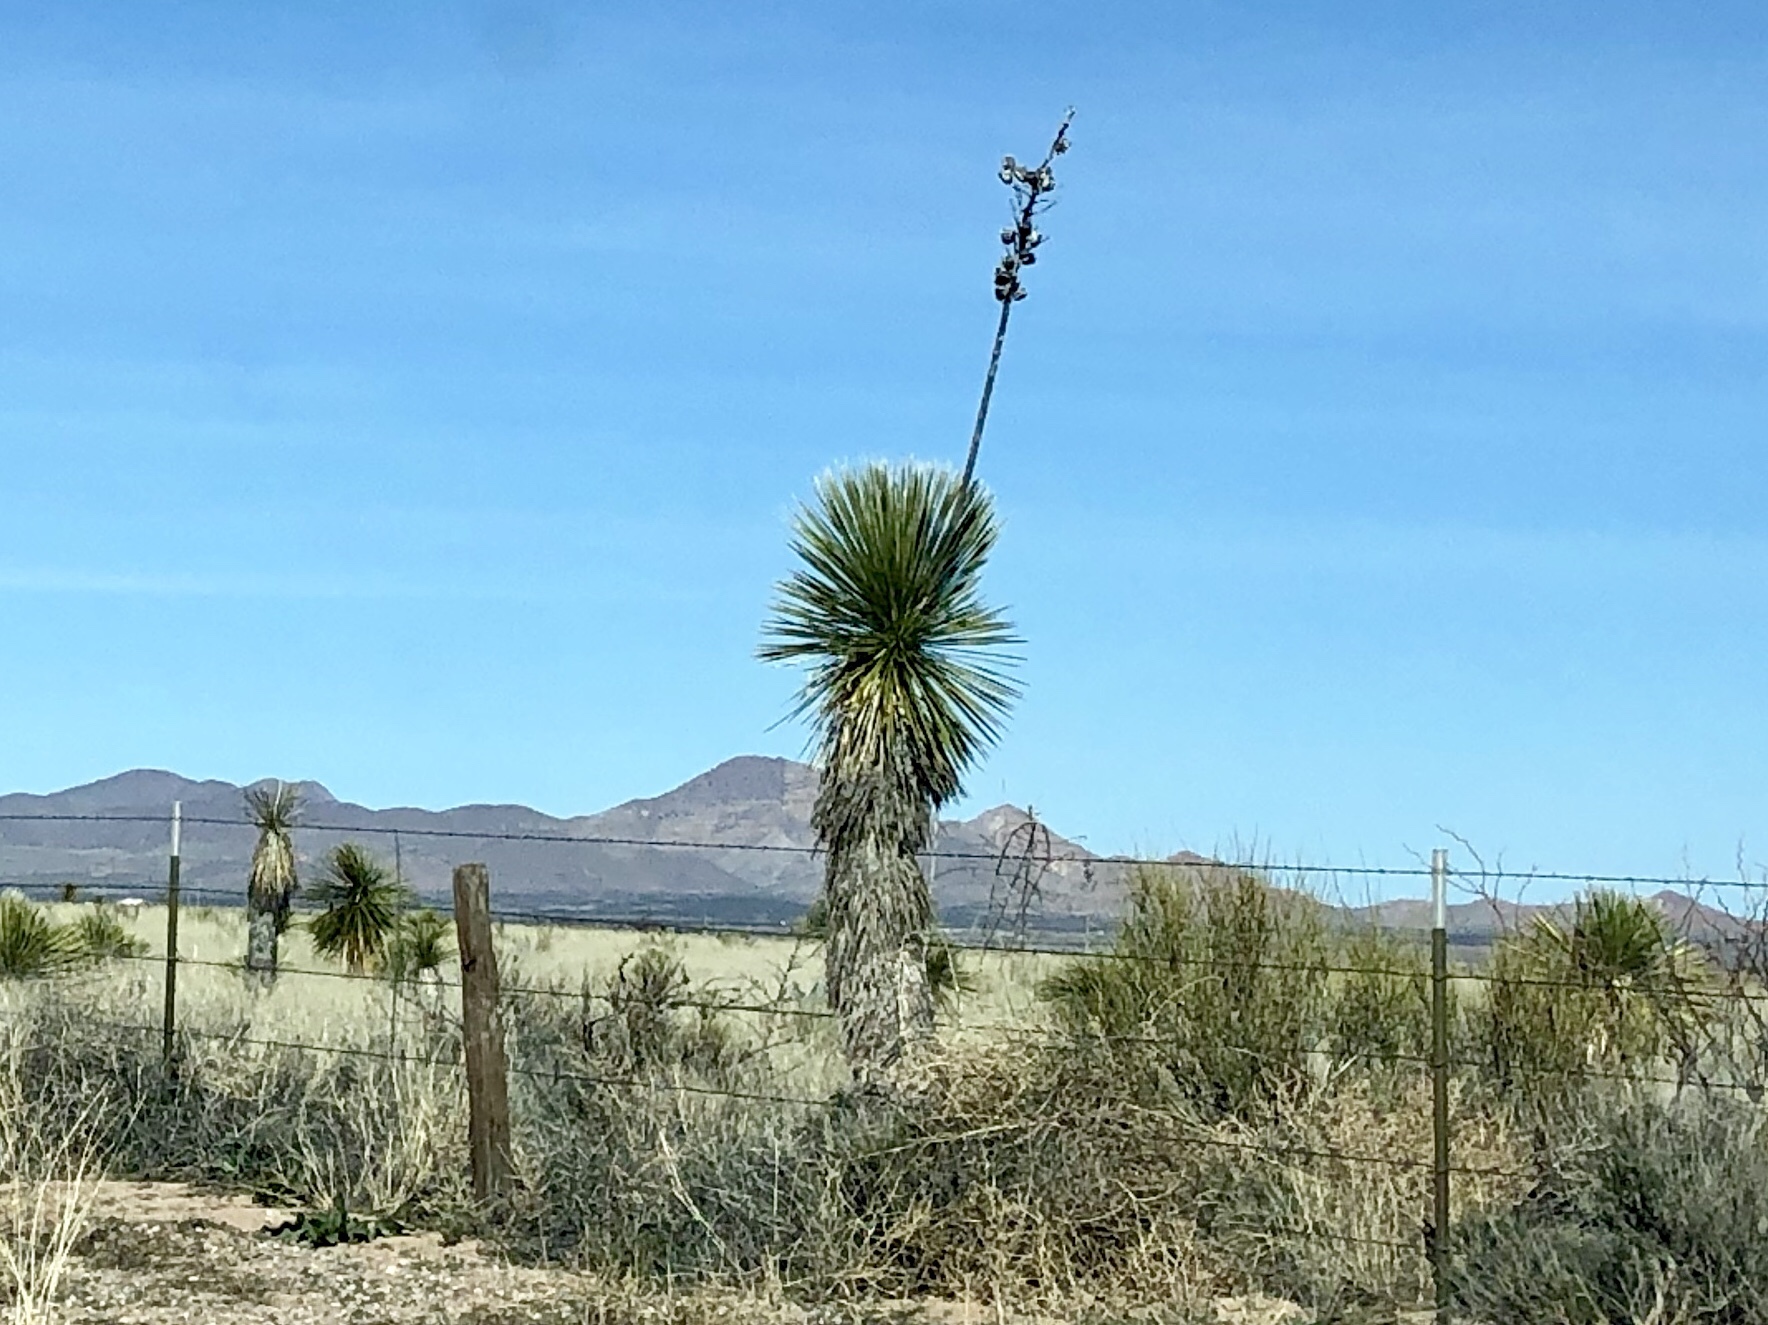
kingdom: Plantae
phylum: Tracheophyta
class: Liliopsida
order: Asparagales
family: Asparagaceae
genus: Yucca
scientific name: Yucca elata
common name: Palmella
